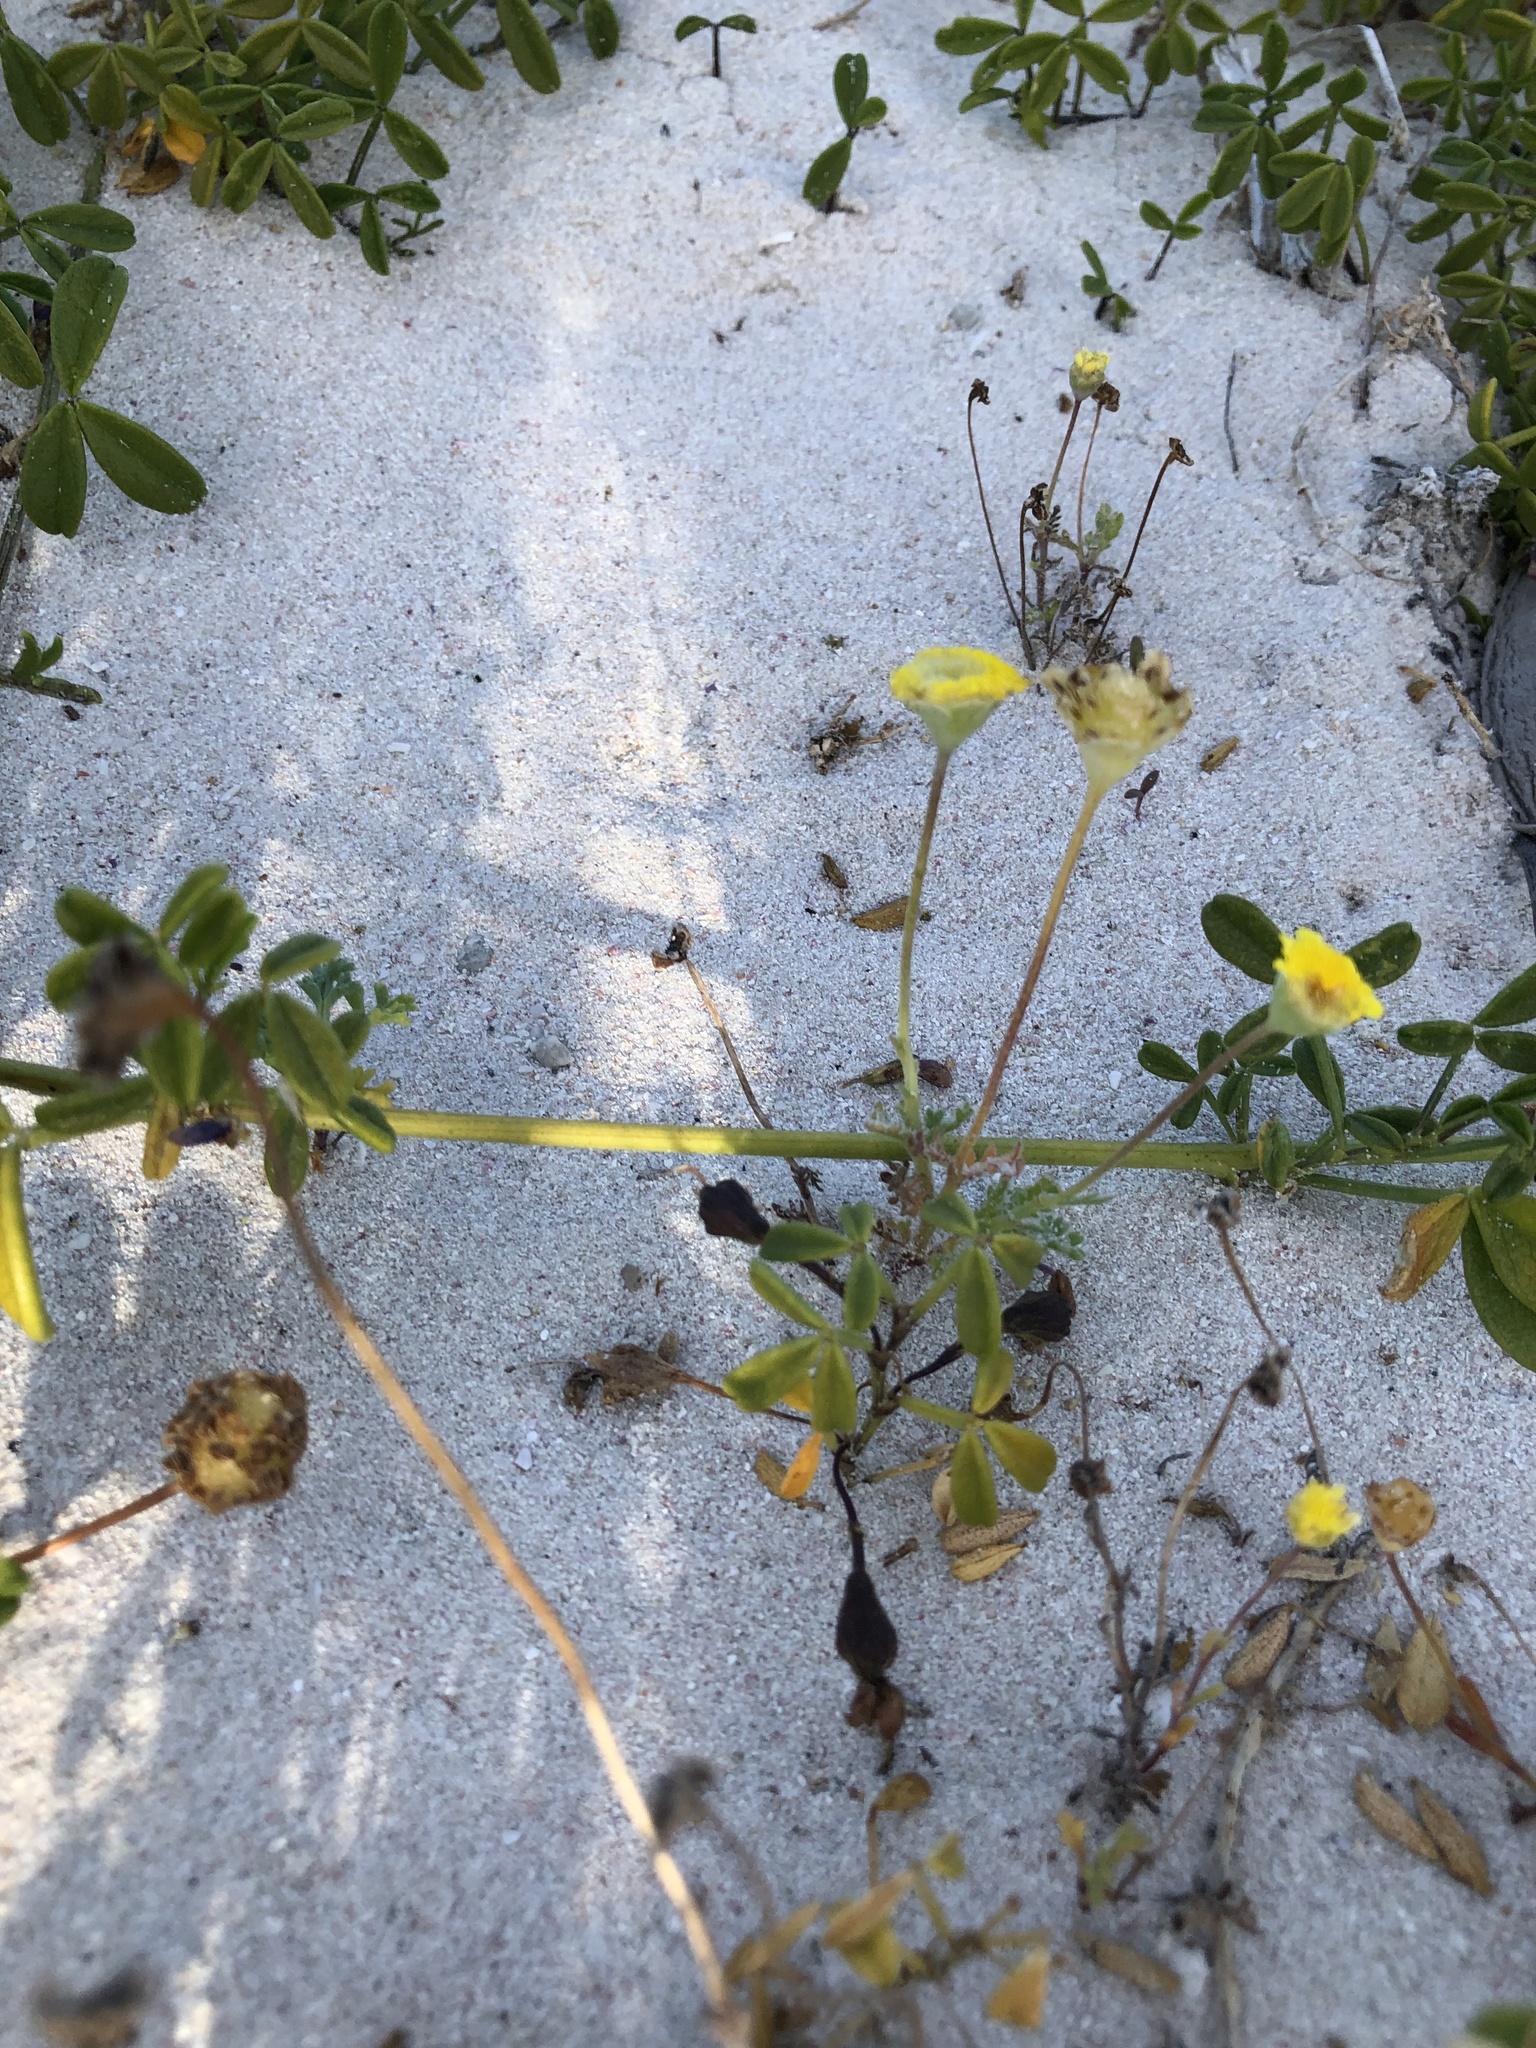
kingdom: Plantae
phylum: Tracheophyta
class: Magnoliopsida
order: Asterales
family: Asteraceae
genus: Cotula
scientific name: Cotula pruinosa
